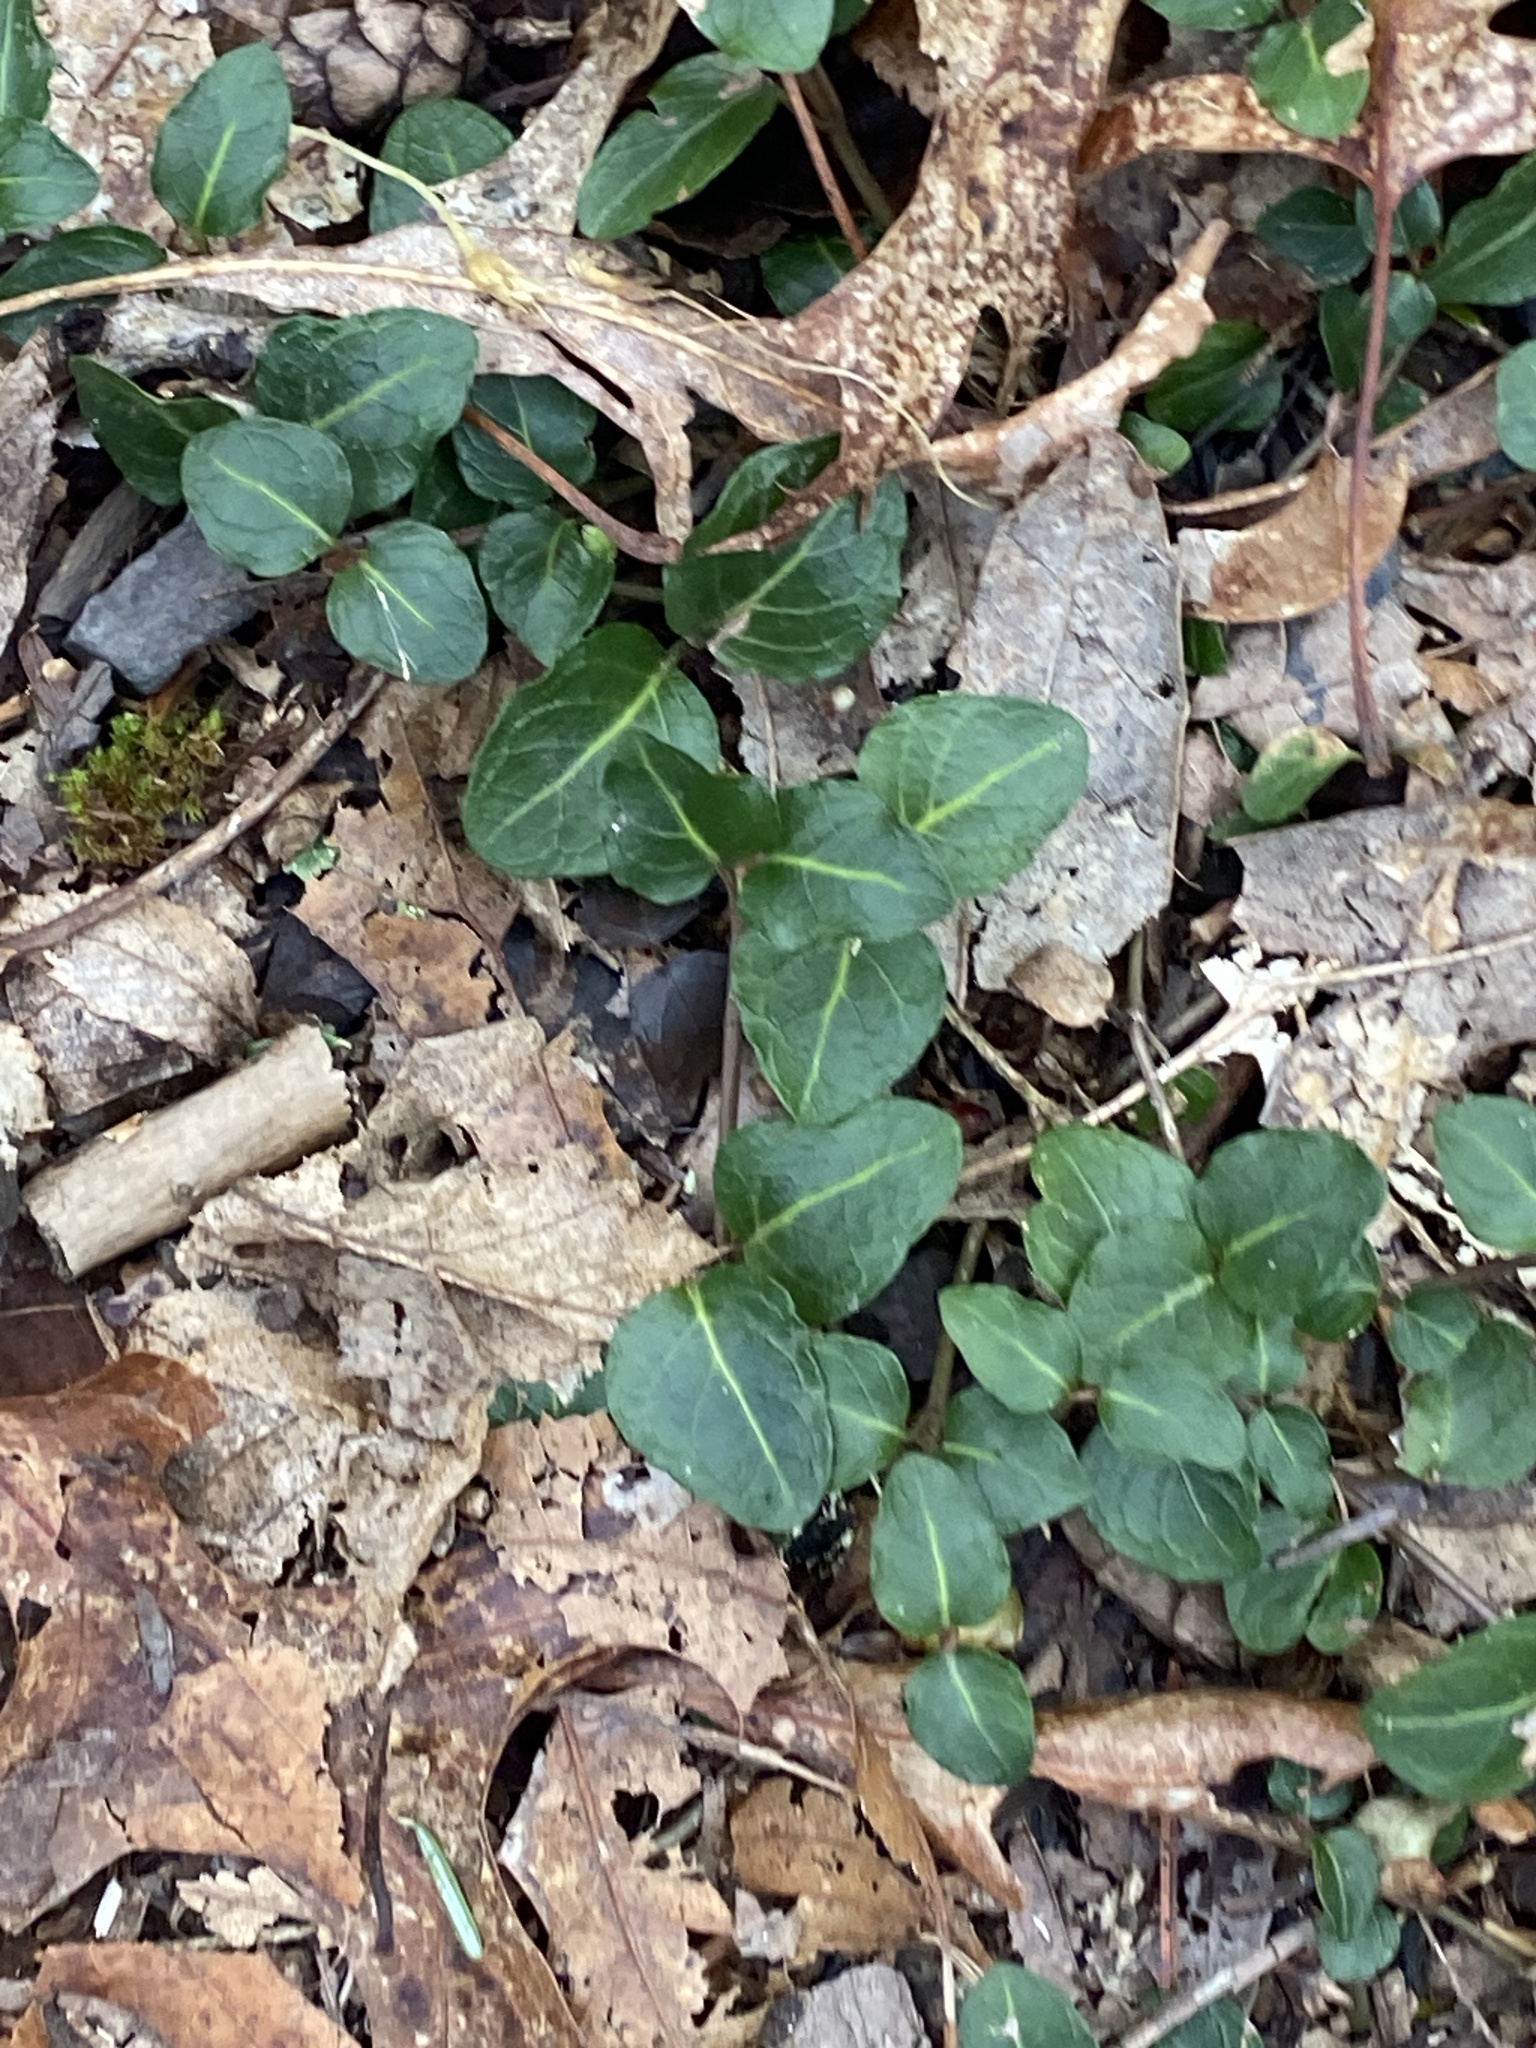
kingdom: Plantae
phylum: Tracheophyta
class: Magnoliopsida
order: Gentianales
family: Rubiaceae
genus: Mitchella
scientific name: Mitchella repens
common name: Partridge-berry
